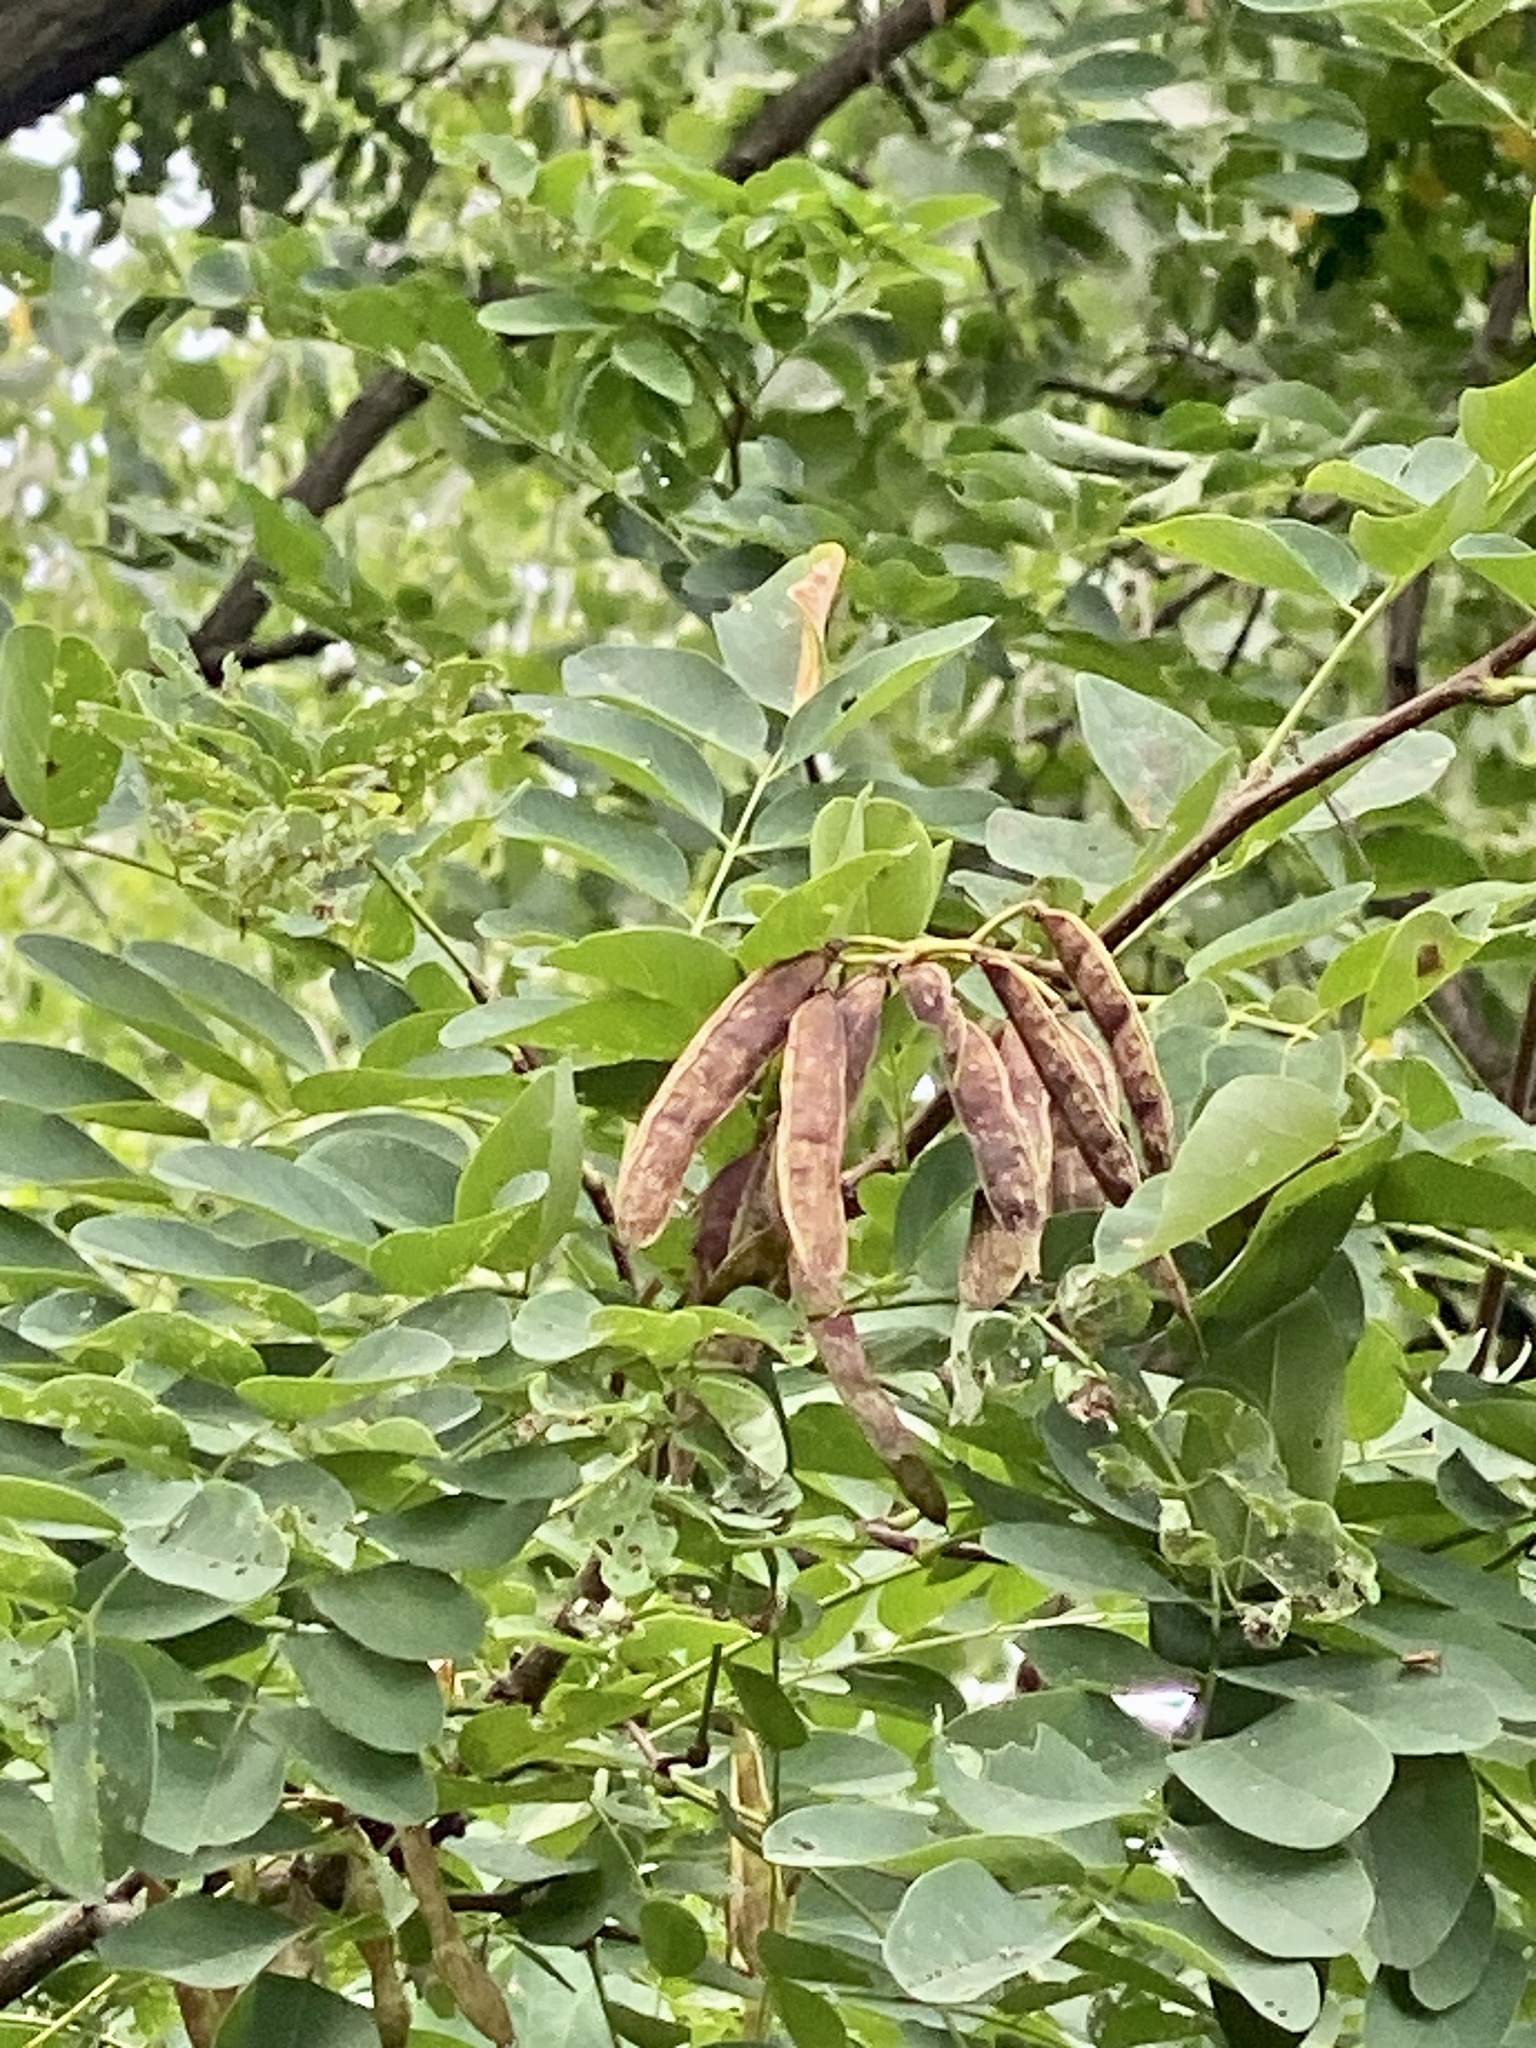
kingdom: Plantae
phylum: Tracheophyta
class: Magnoliopsida
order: Fabales
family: Fabaceae
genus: Robinia
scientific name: Robinia pseudoacacia
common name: Black locust
